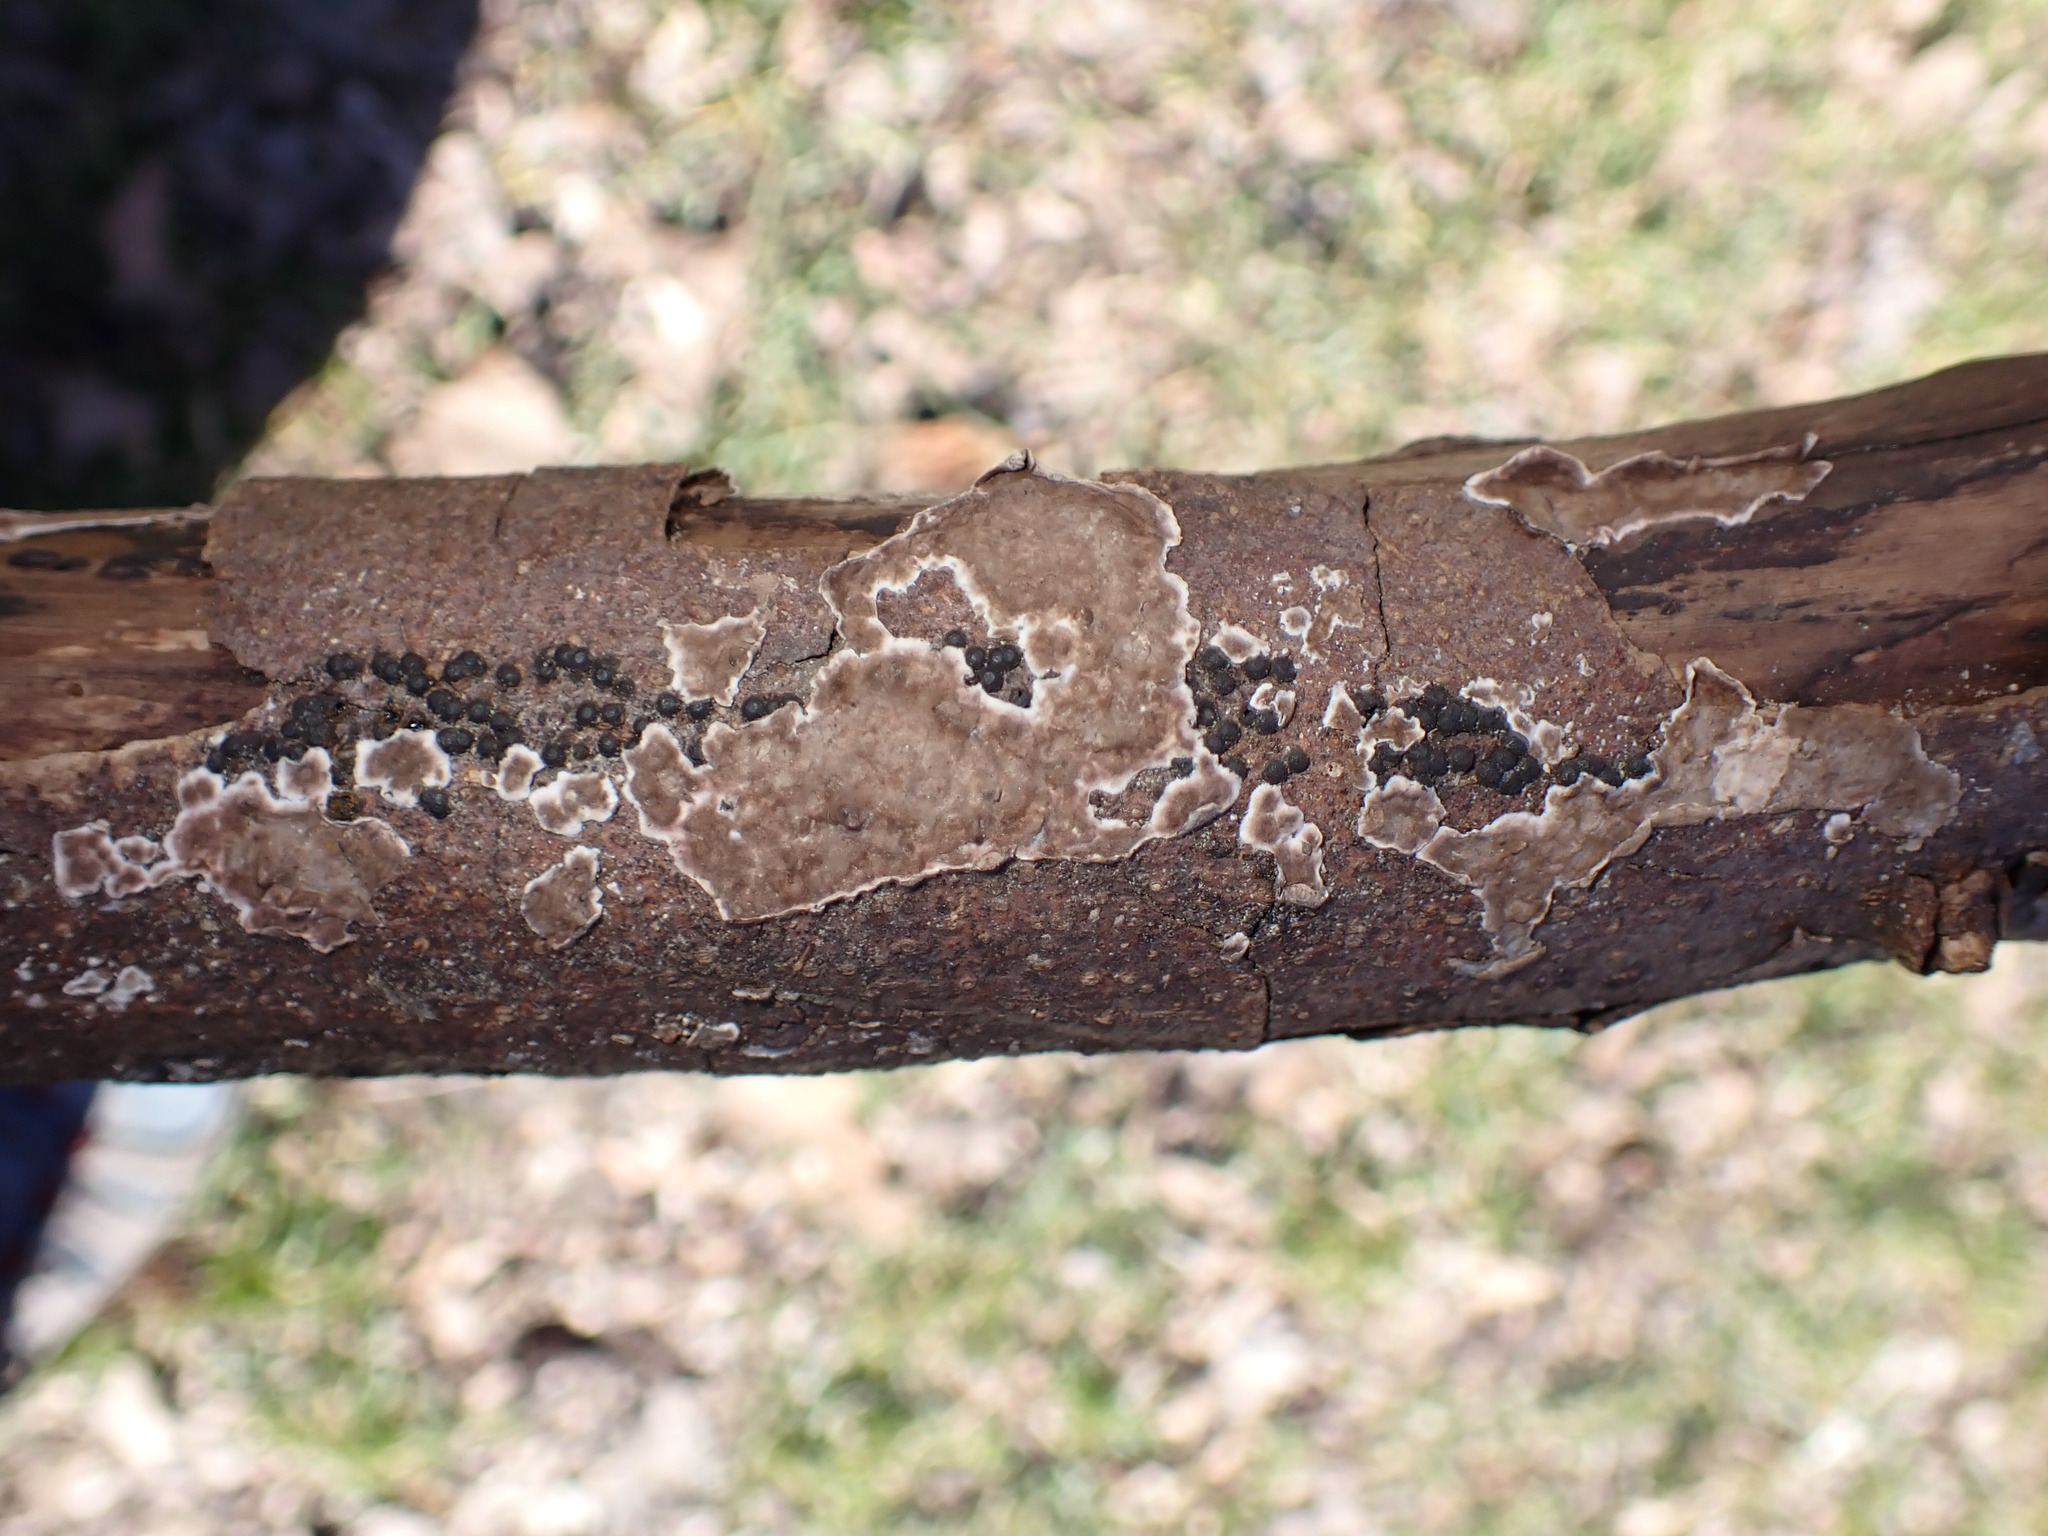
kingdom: Fungi
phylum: Basidiomycota
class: Agaricomycetes
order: Russulales
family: Peniophoraceae
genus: Peniophora
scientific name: Peniophora albobadia
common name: Giraffe spots
